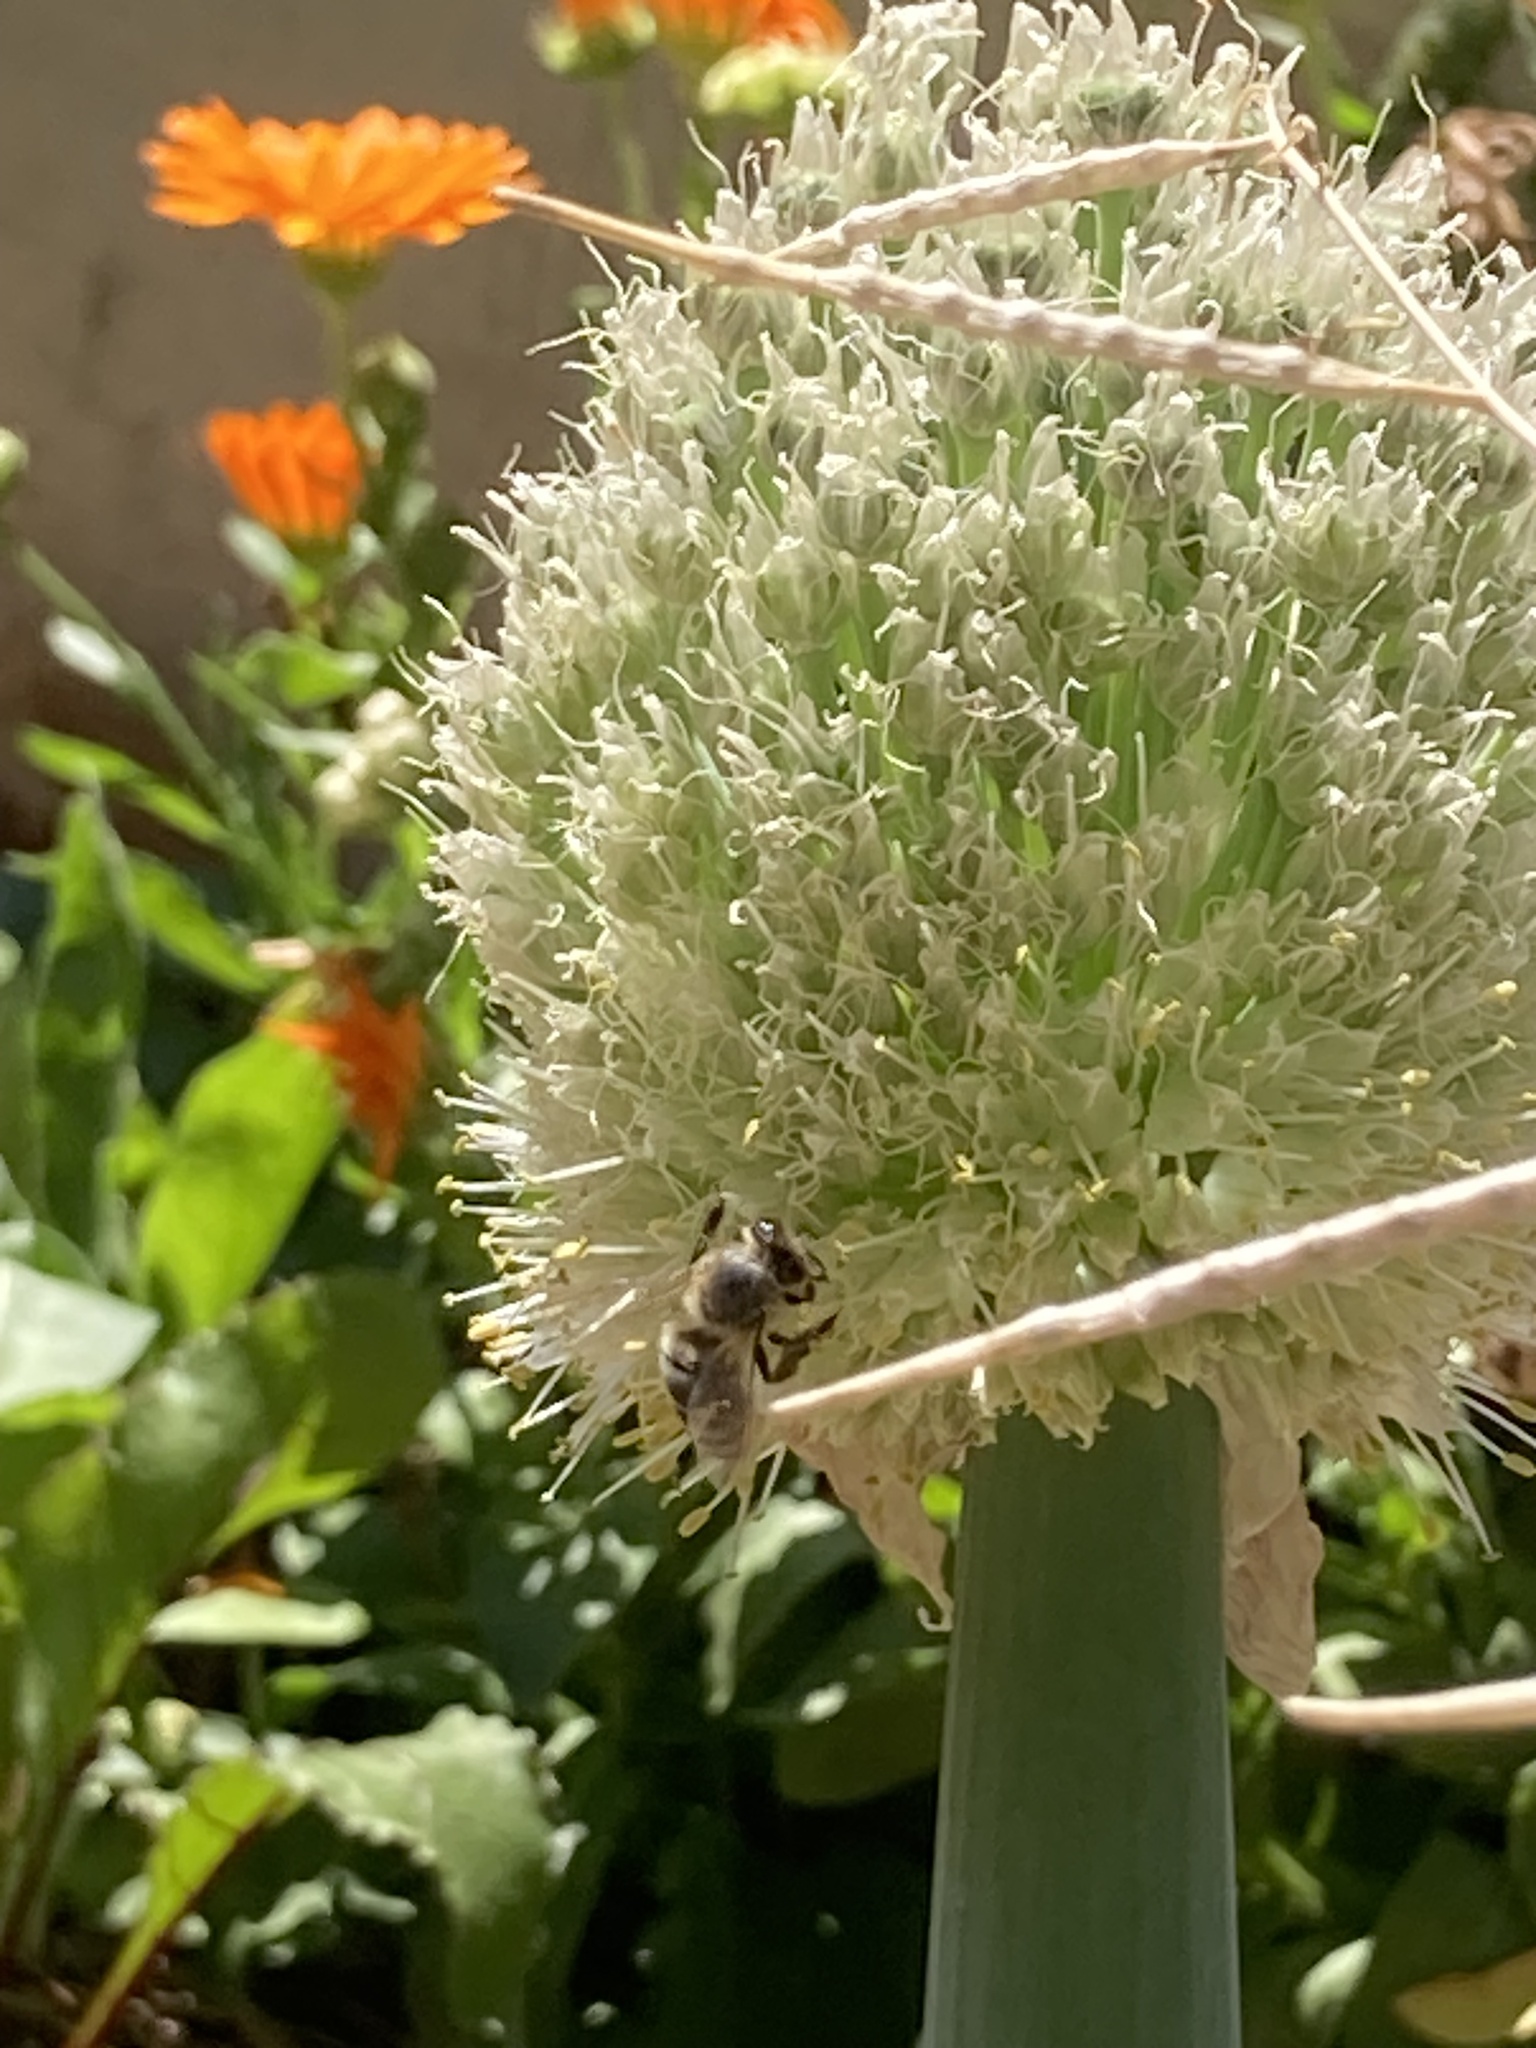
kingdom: Animalia
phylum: Arthropoda
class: Insecta
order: Hymenoptera
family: Apidae
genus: Apis
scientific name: Apis mellifera
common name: Honey bee
